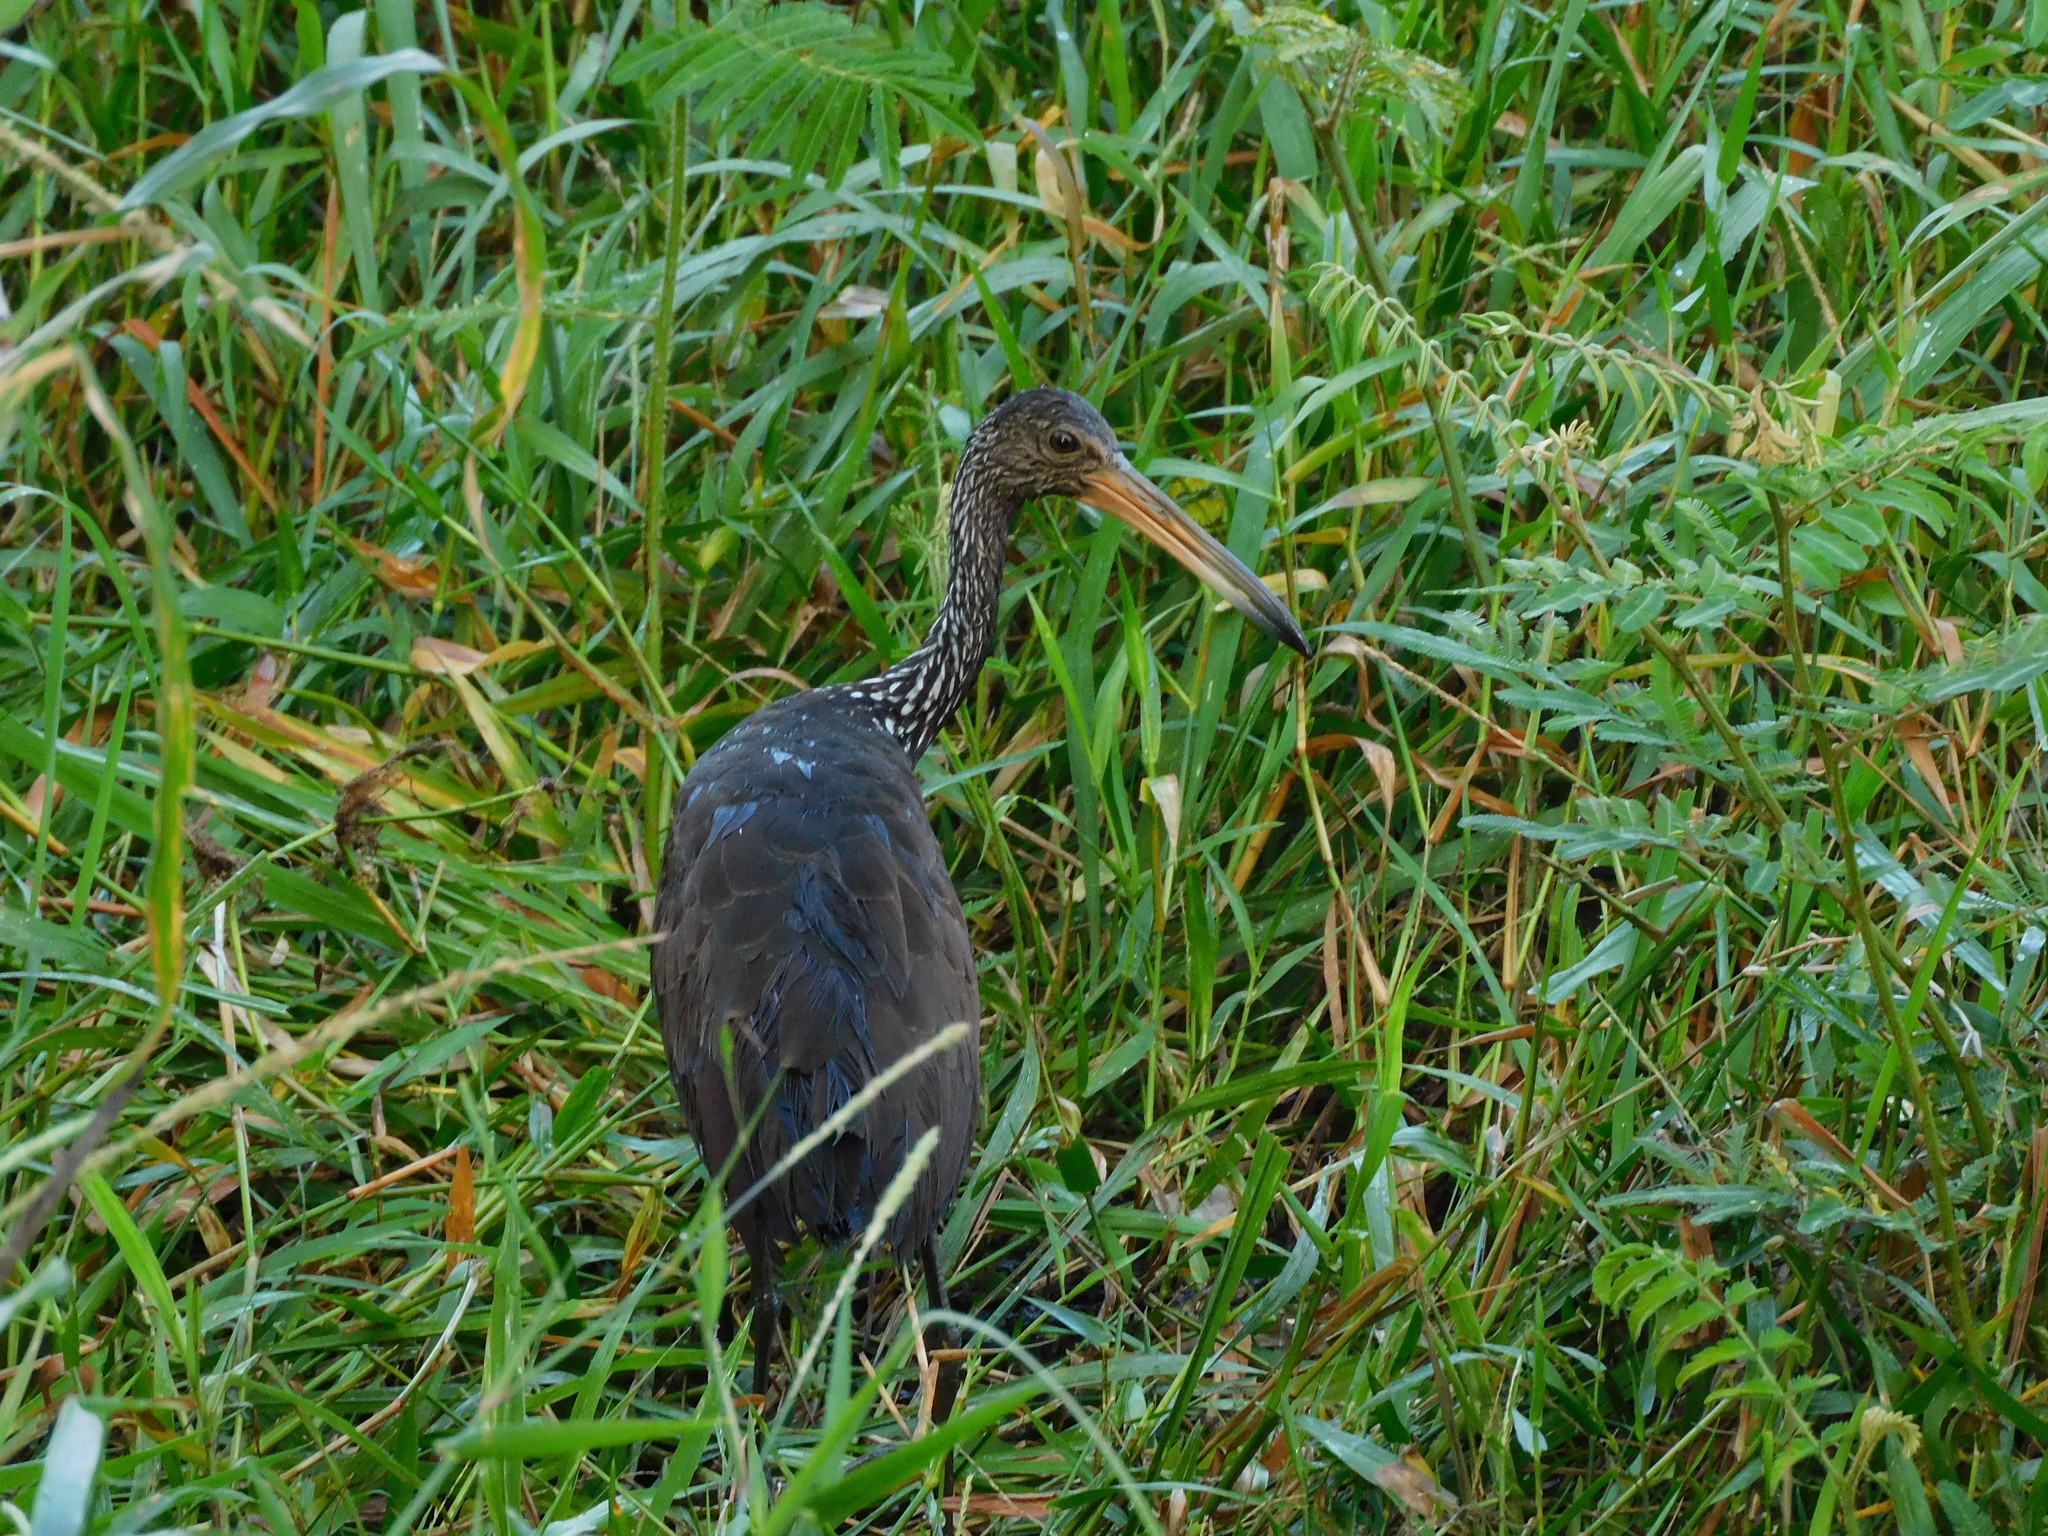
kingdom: Animalia
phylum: Chordata
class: Aves
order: Gruiformes
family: Aramidae
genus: Aramus
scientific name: Aramus guarauna
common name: Limpkin
